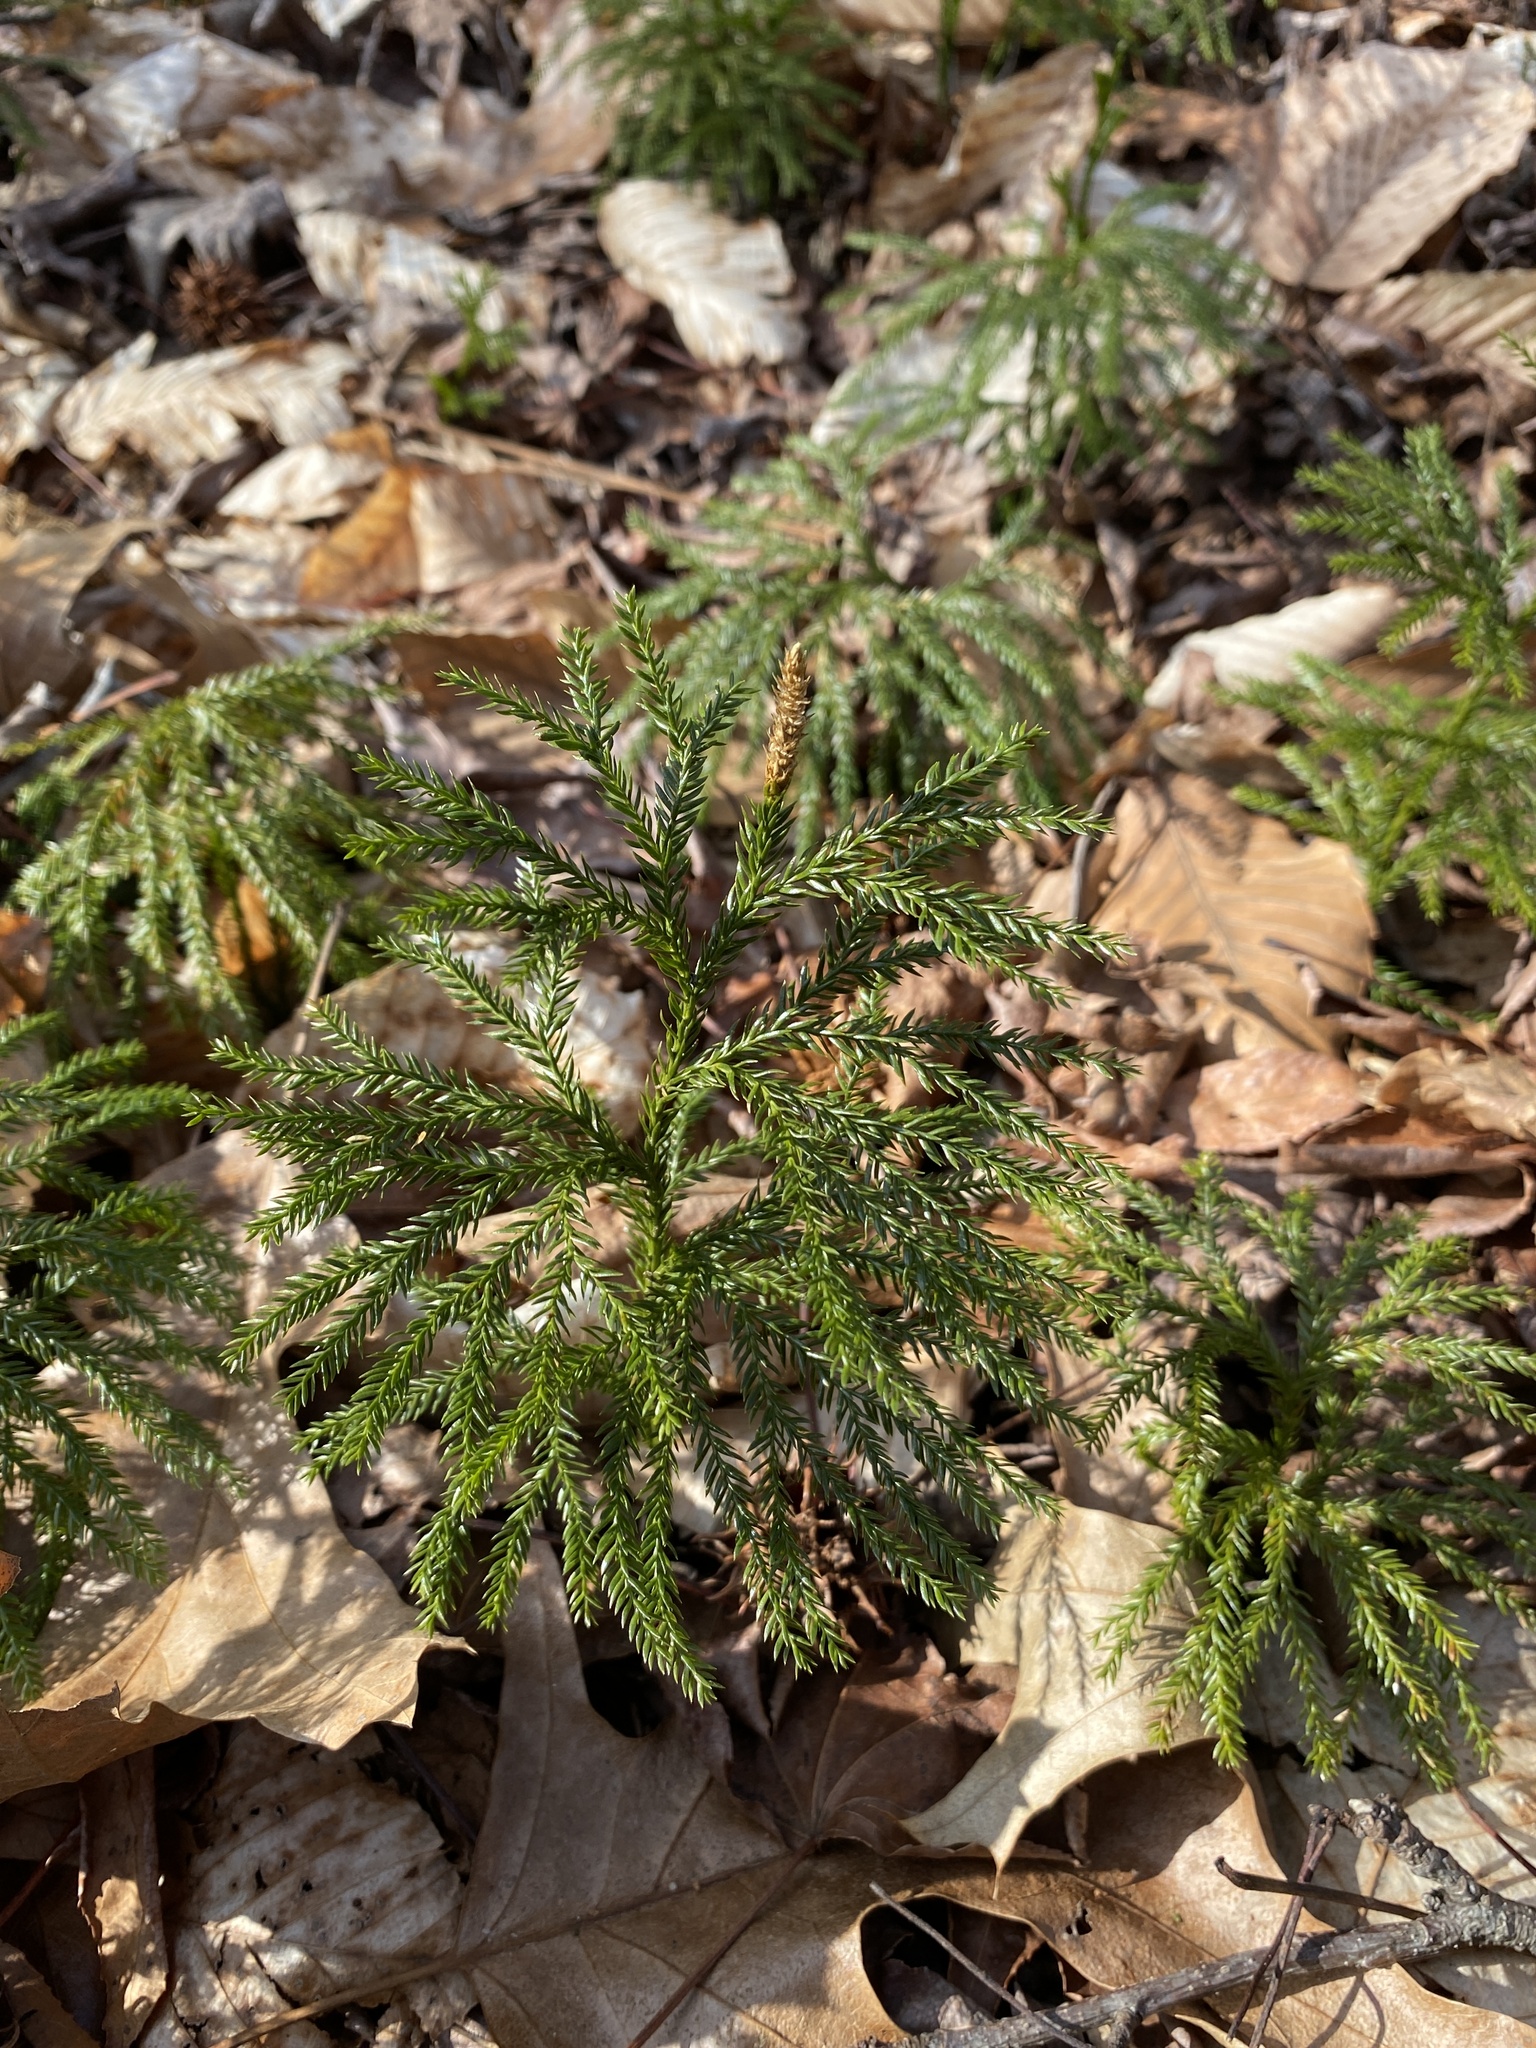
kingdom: Plantae
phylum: Tracheophyta
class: Lycopodiopsida
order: Lycopodiales
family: Lycopodiaceae
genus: Dendrolycopodium
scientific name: Dendrolycopodium obscurum
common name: Common ground-pine
